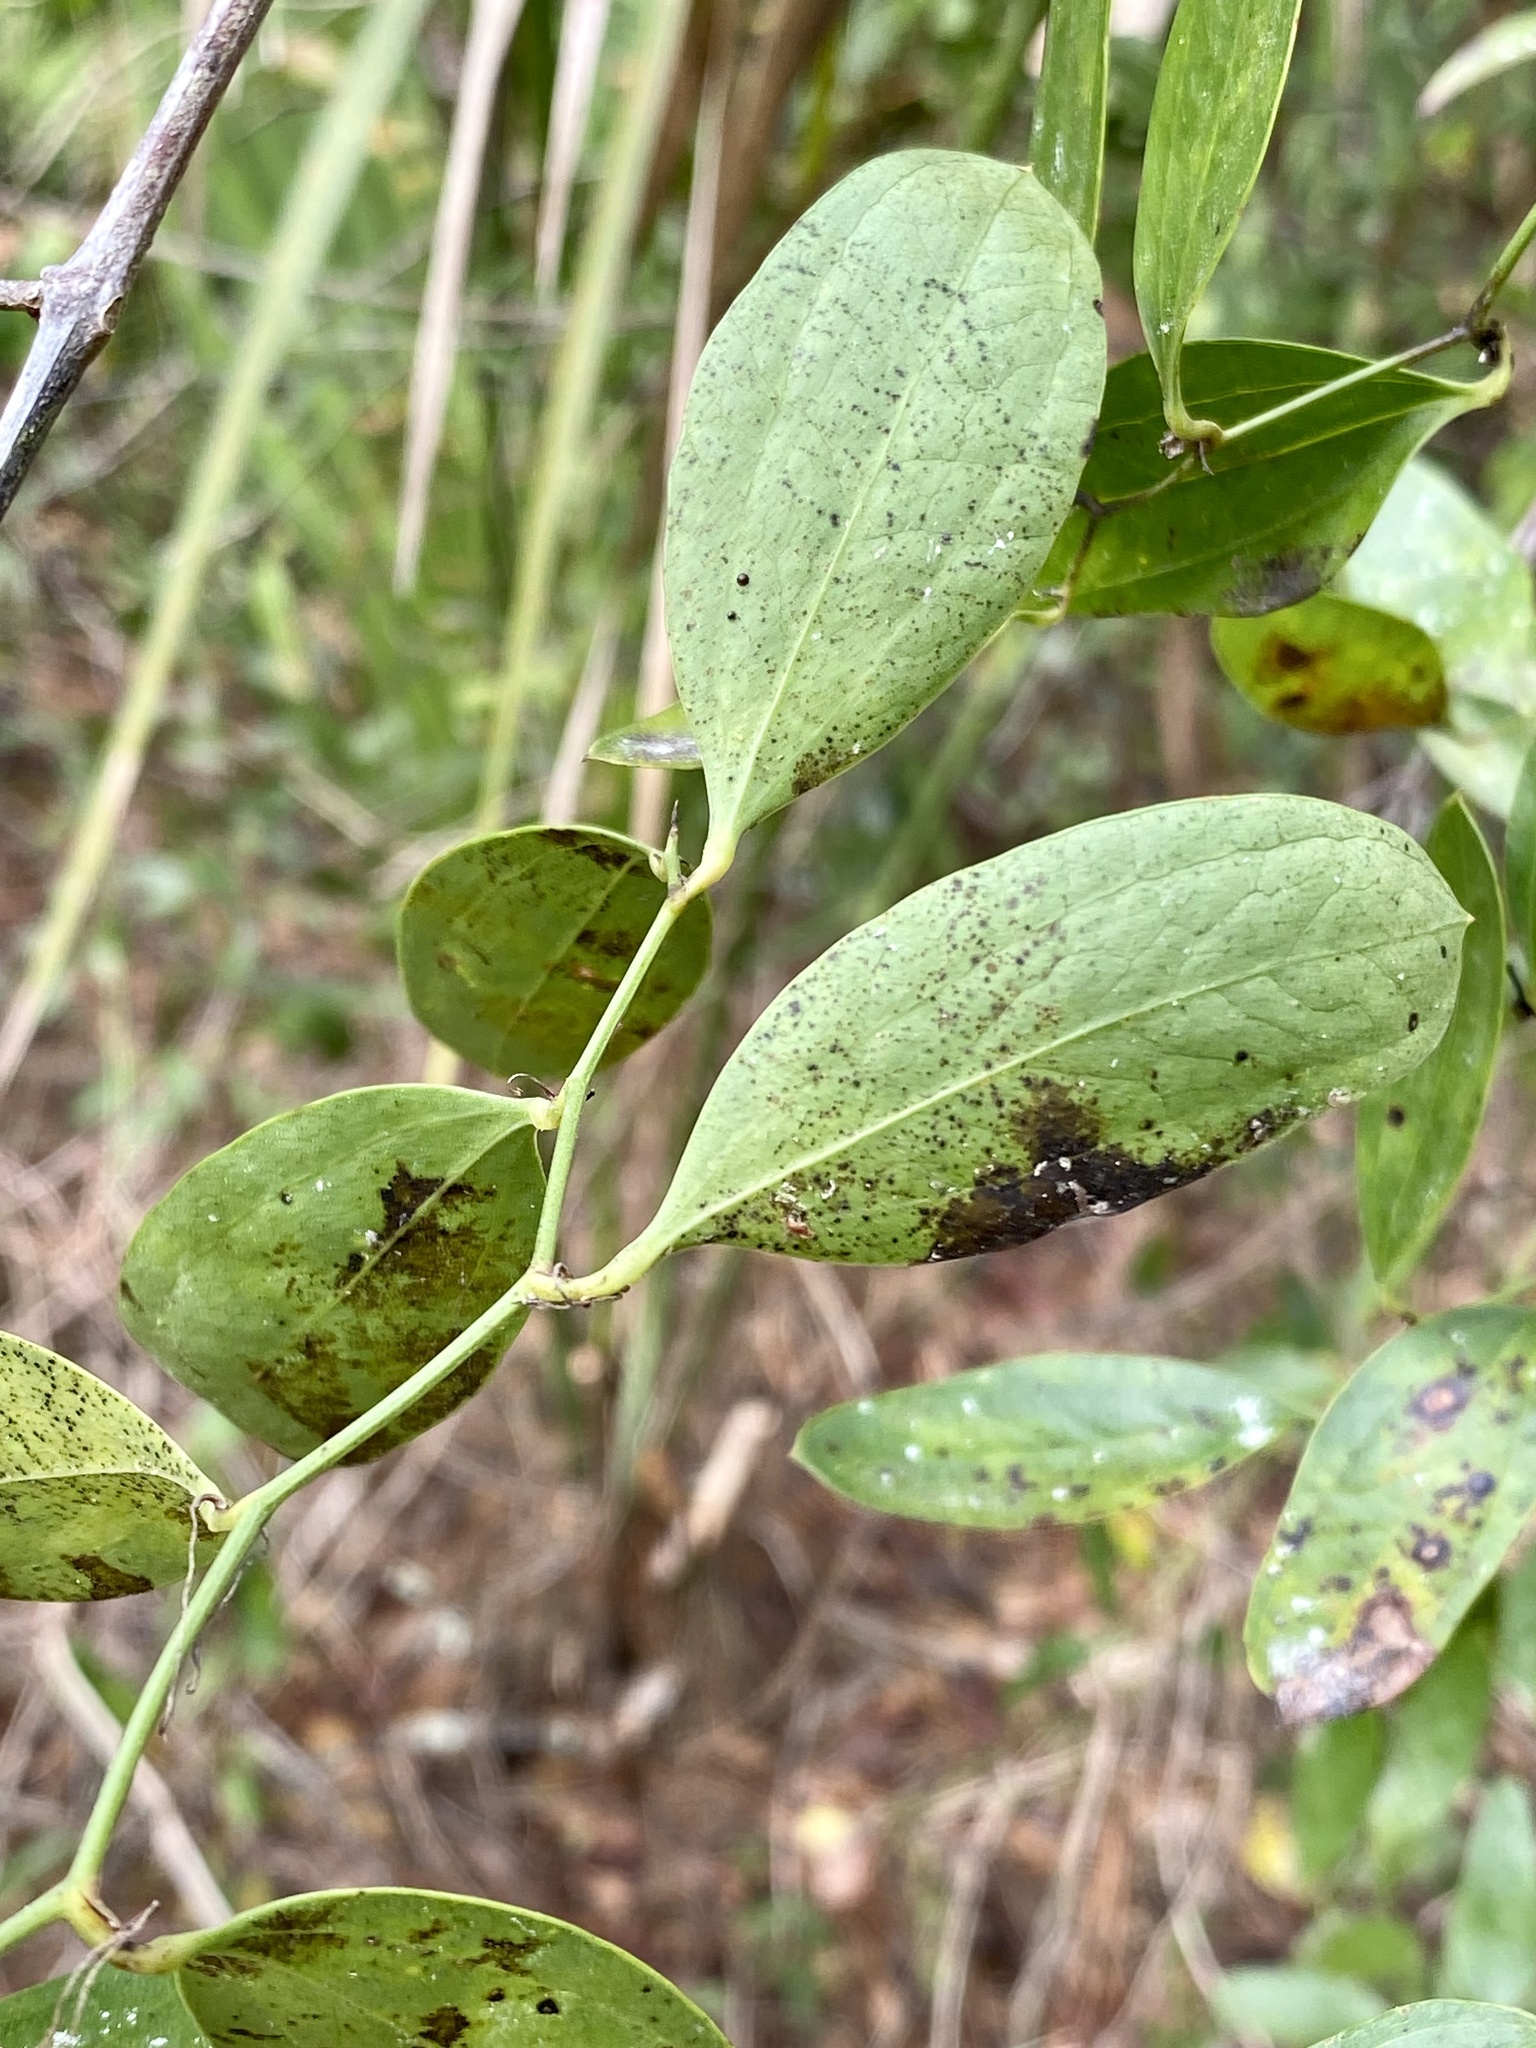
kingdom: Plantae
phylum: Tracheophyta
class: Liliopsida
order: Liliales
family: Smilacaceae
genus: Smilax
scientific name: Smilax auriculata
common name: Wild bamboo
